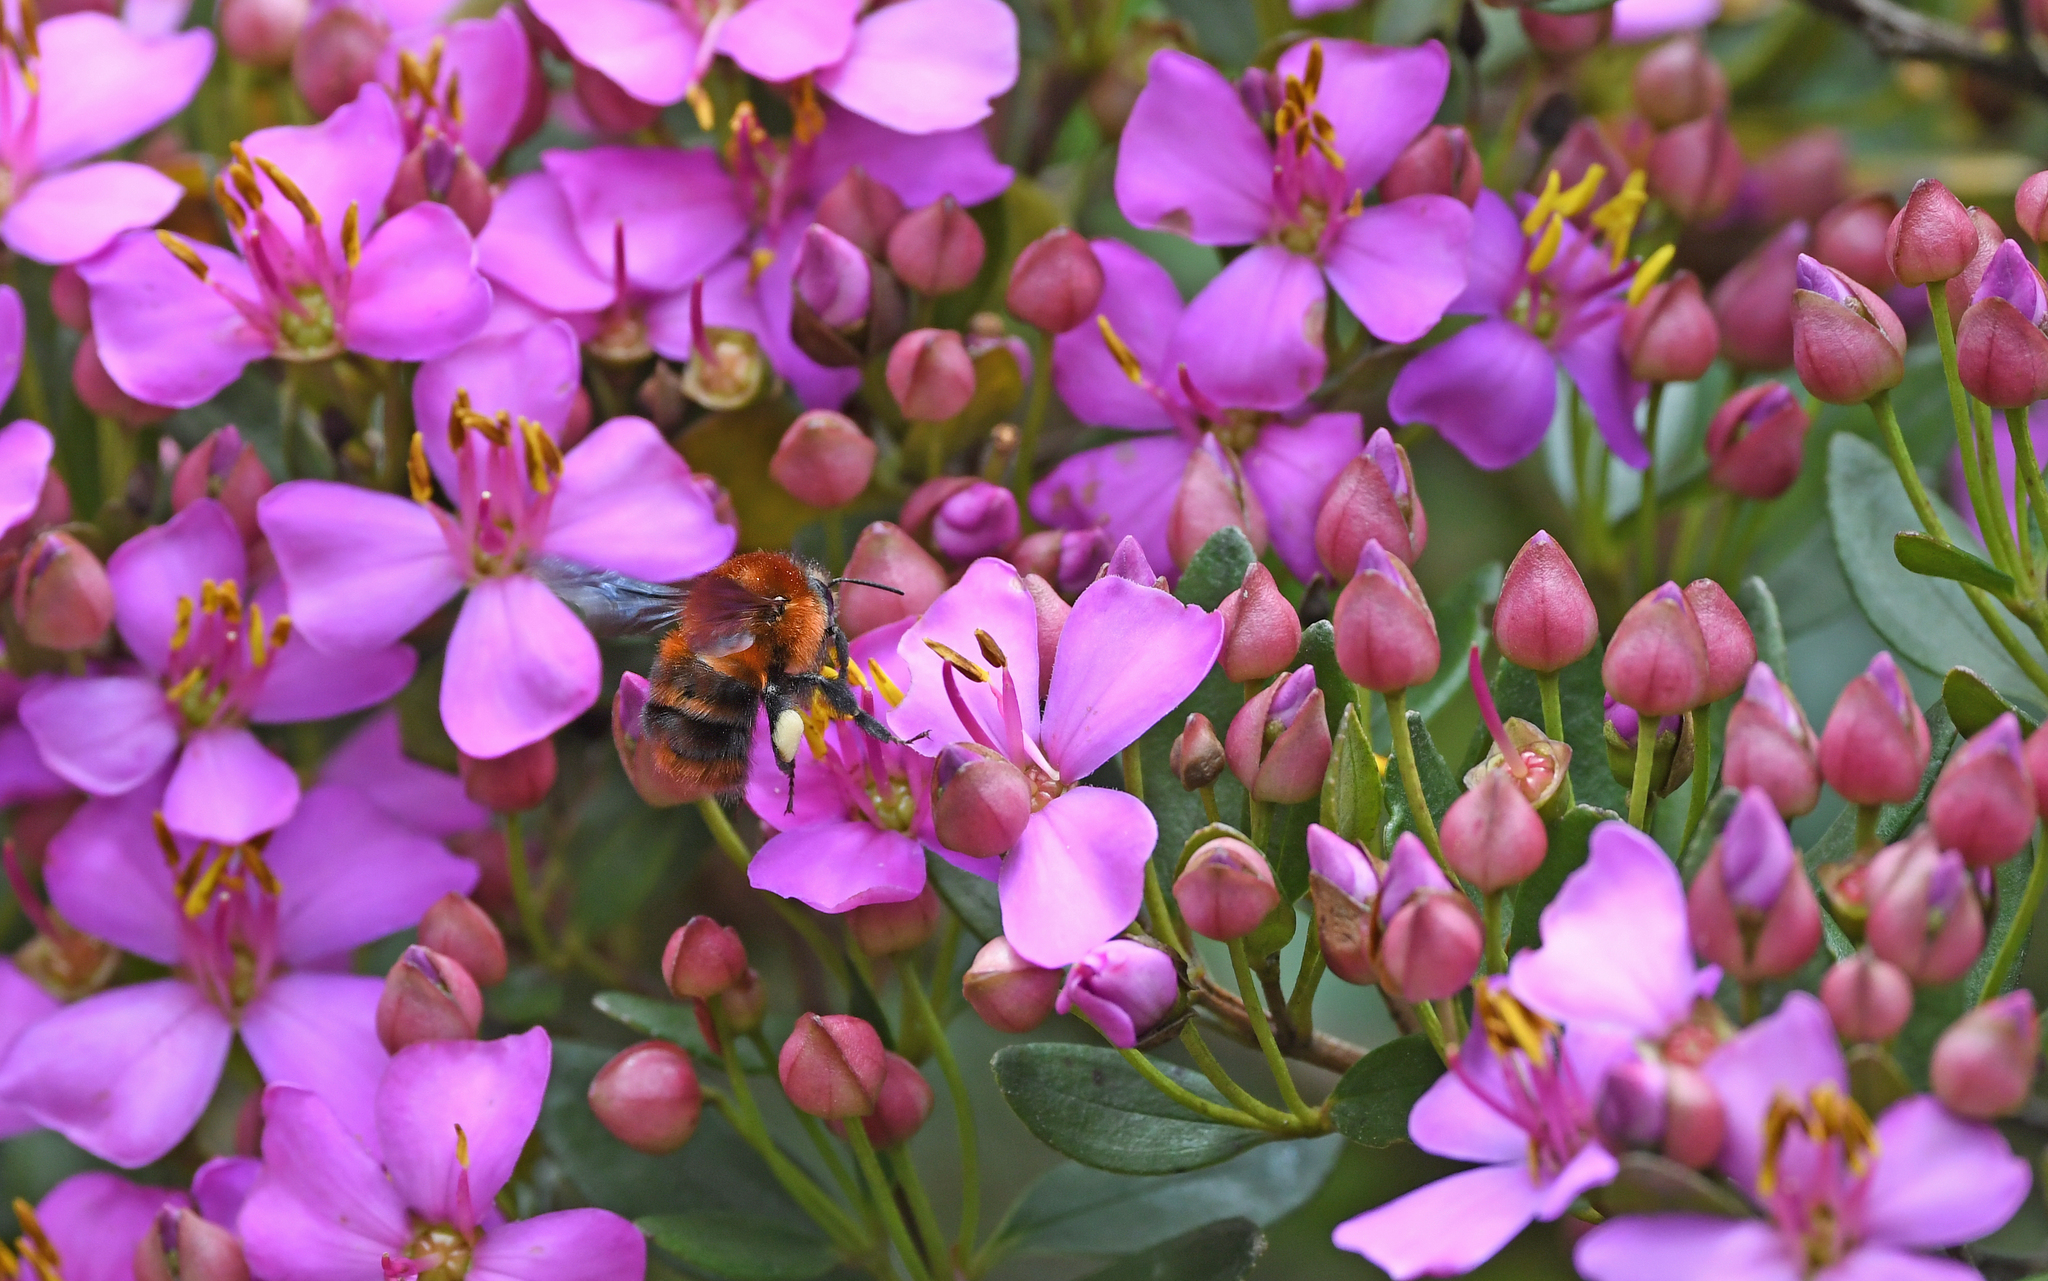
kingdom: Animalia
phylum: Arthropoda
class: Insecta
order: Hymenoptera
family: Apidae
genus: Bombus
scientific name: Bombus rubicundus
